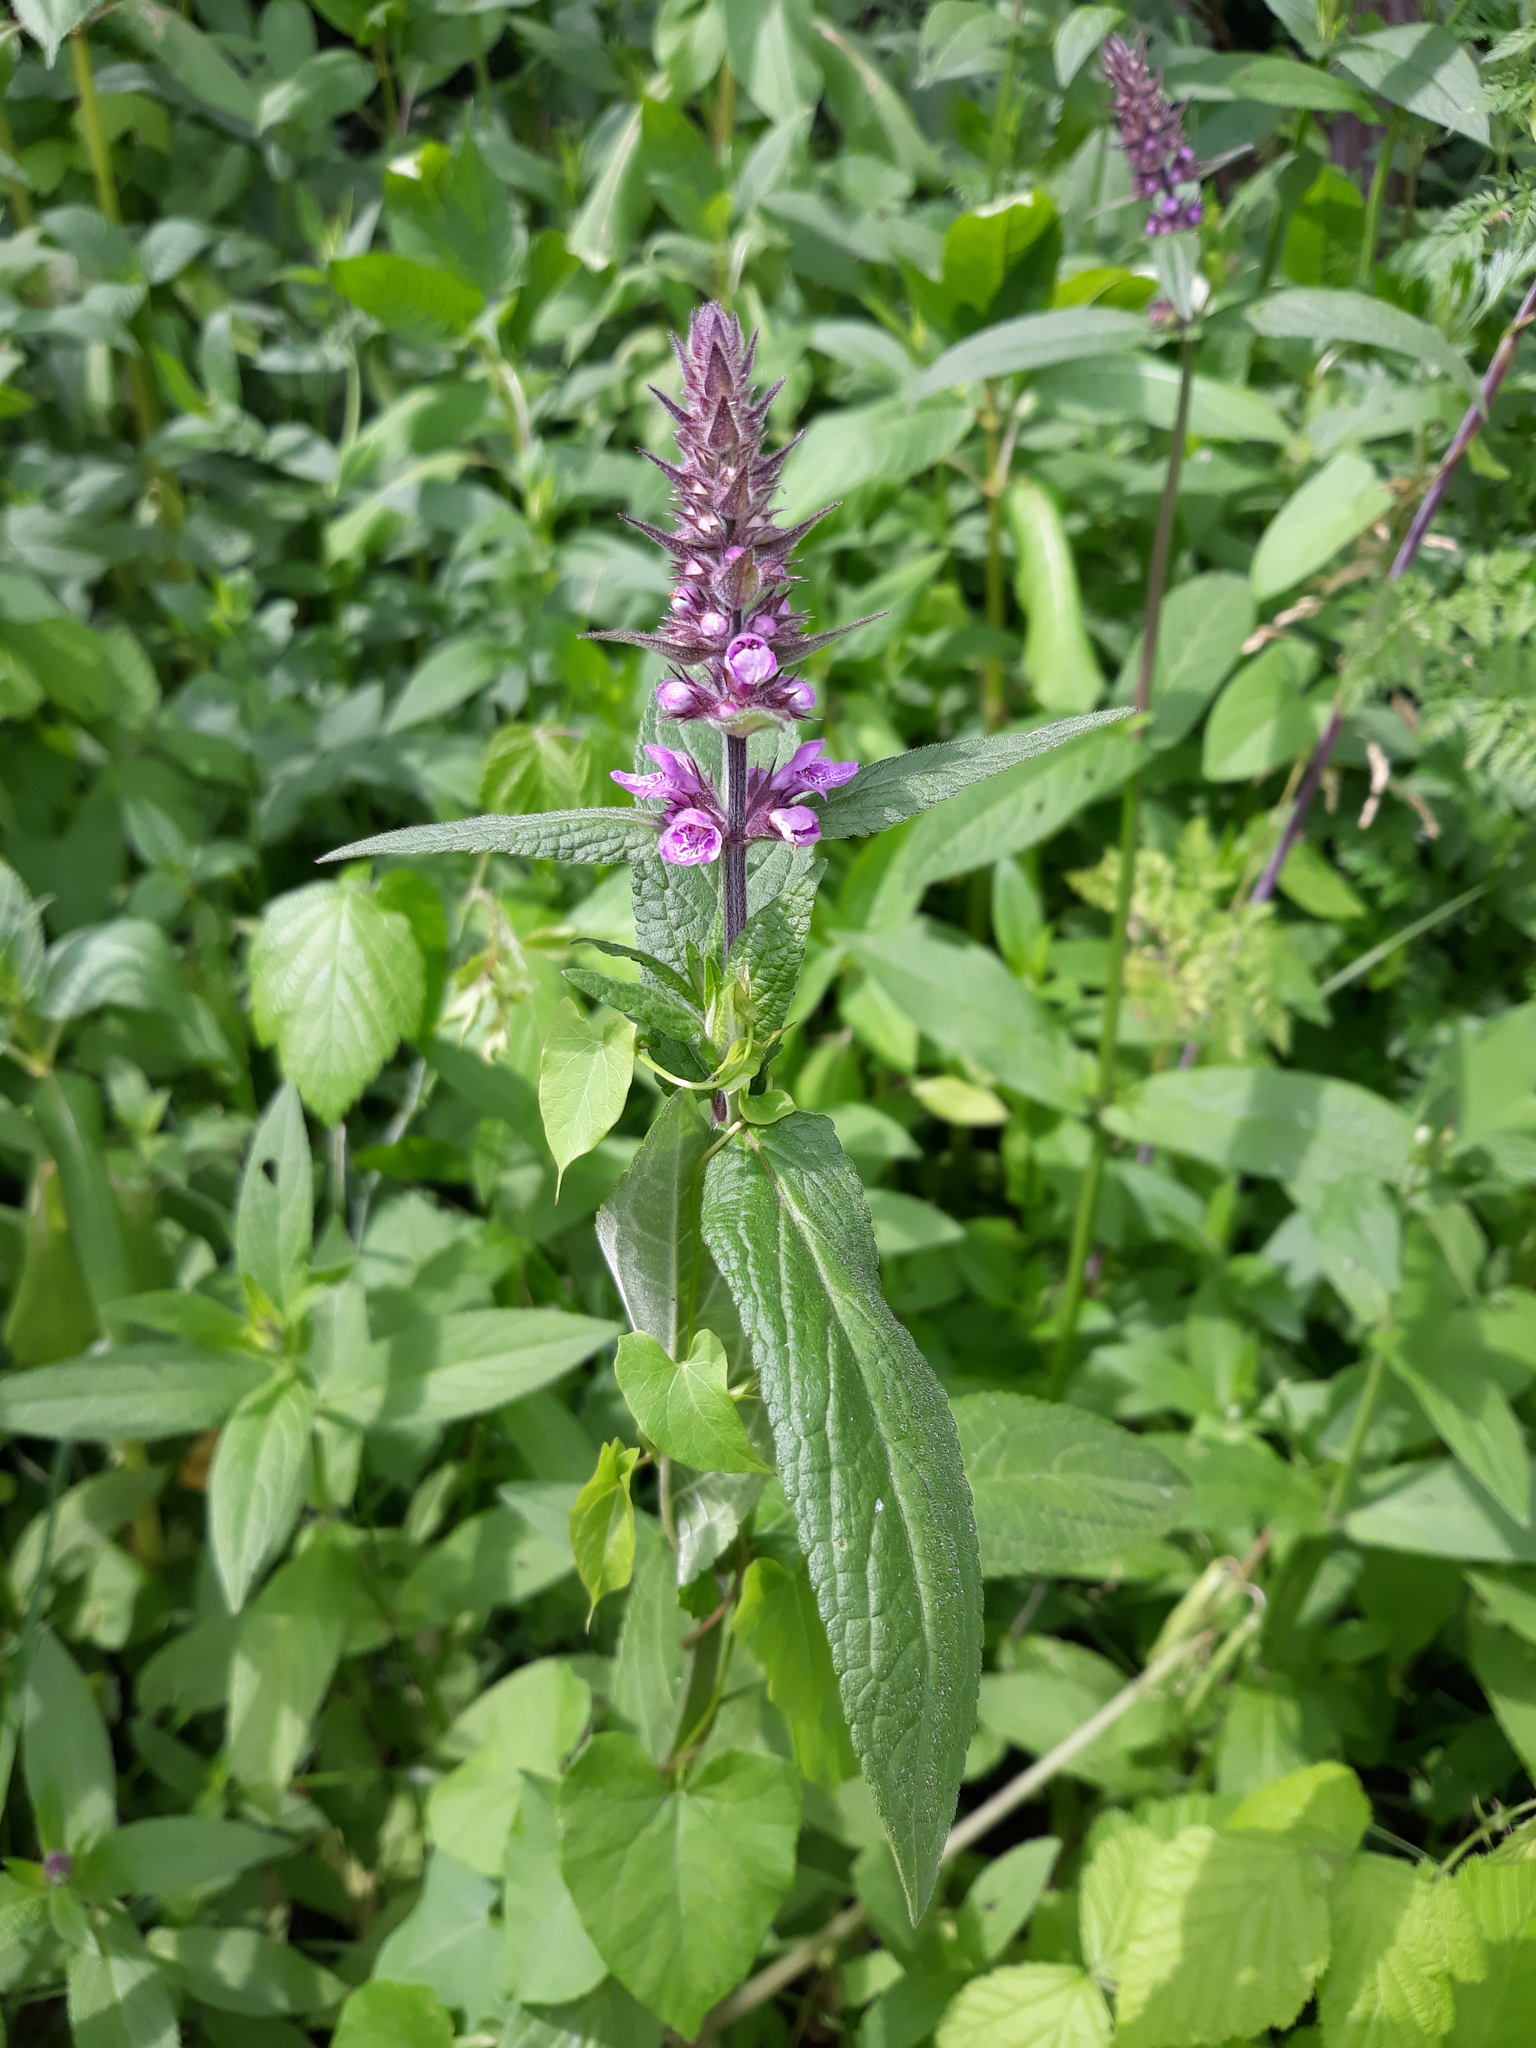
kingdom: Plantae
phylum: Tracheophyta
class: Magnoliopsida
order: Lamiales
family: Lamiaceae
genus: Stachys
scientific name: Stachys palustris
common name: Marsh woundwort
